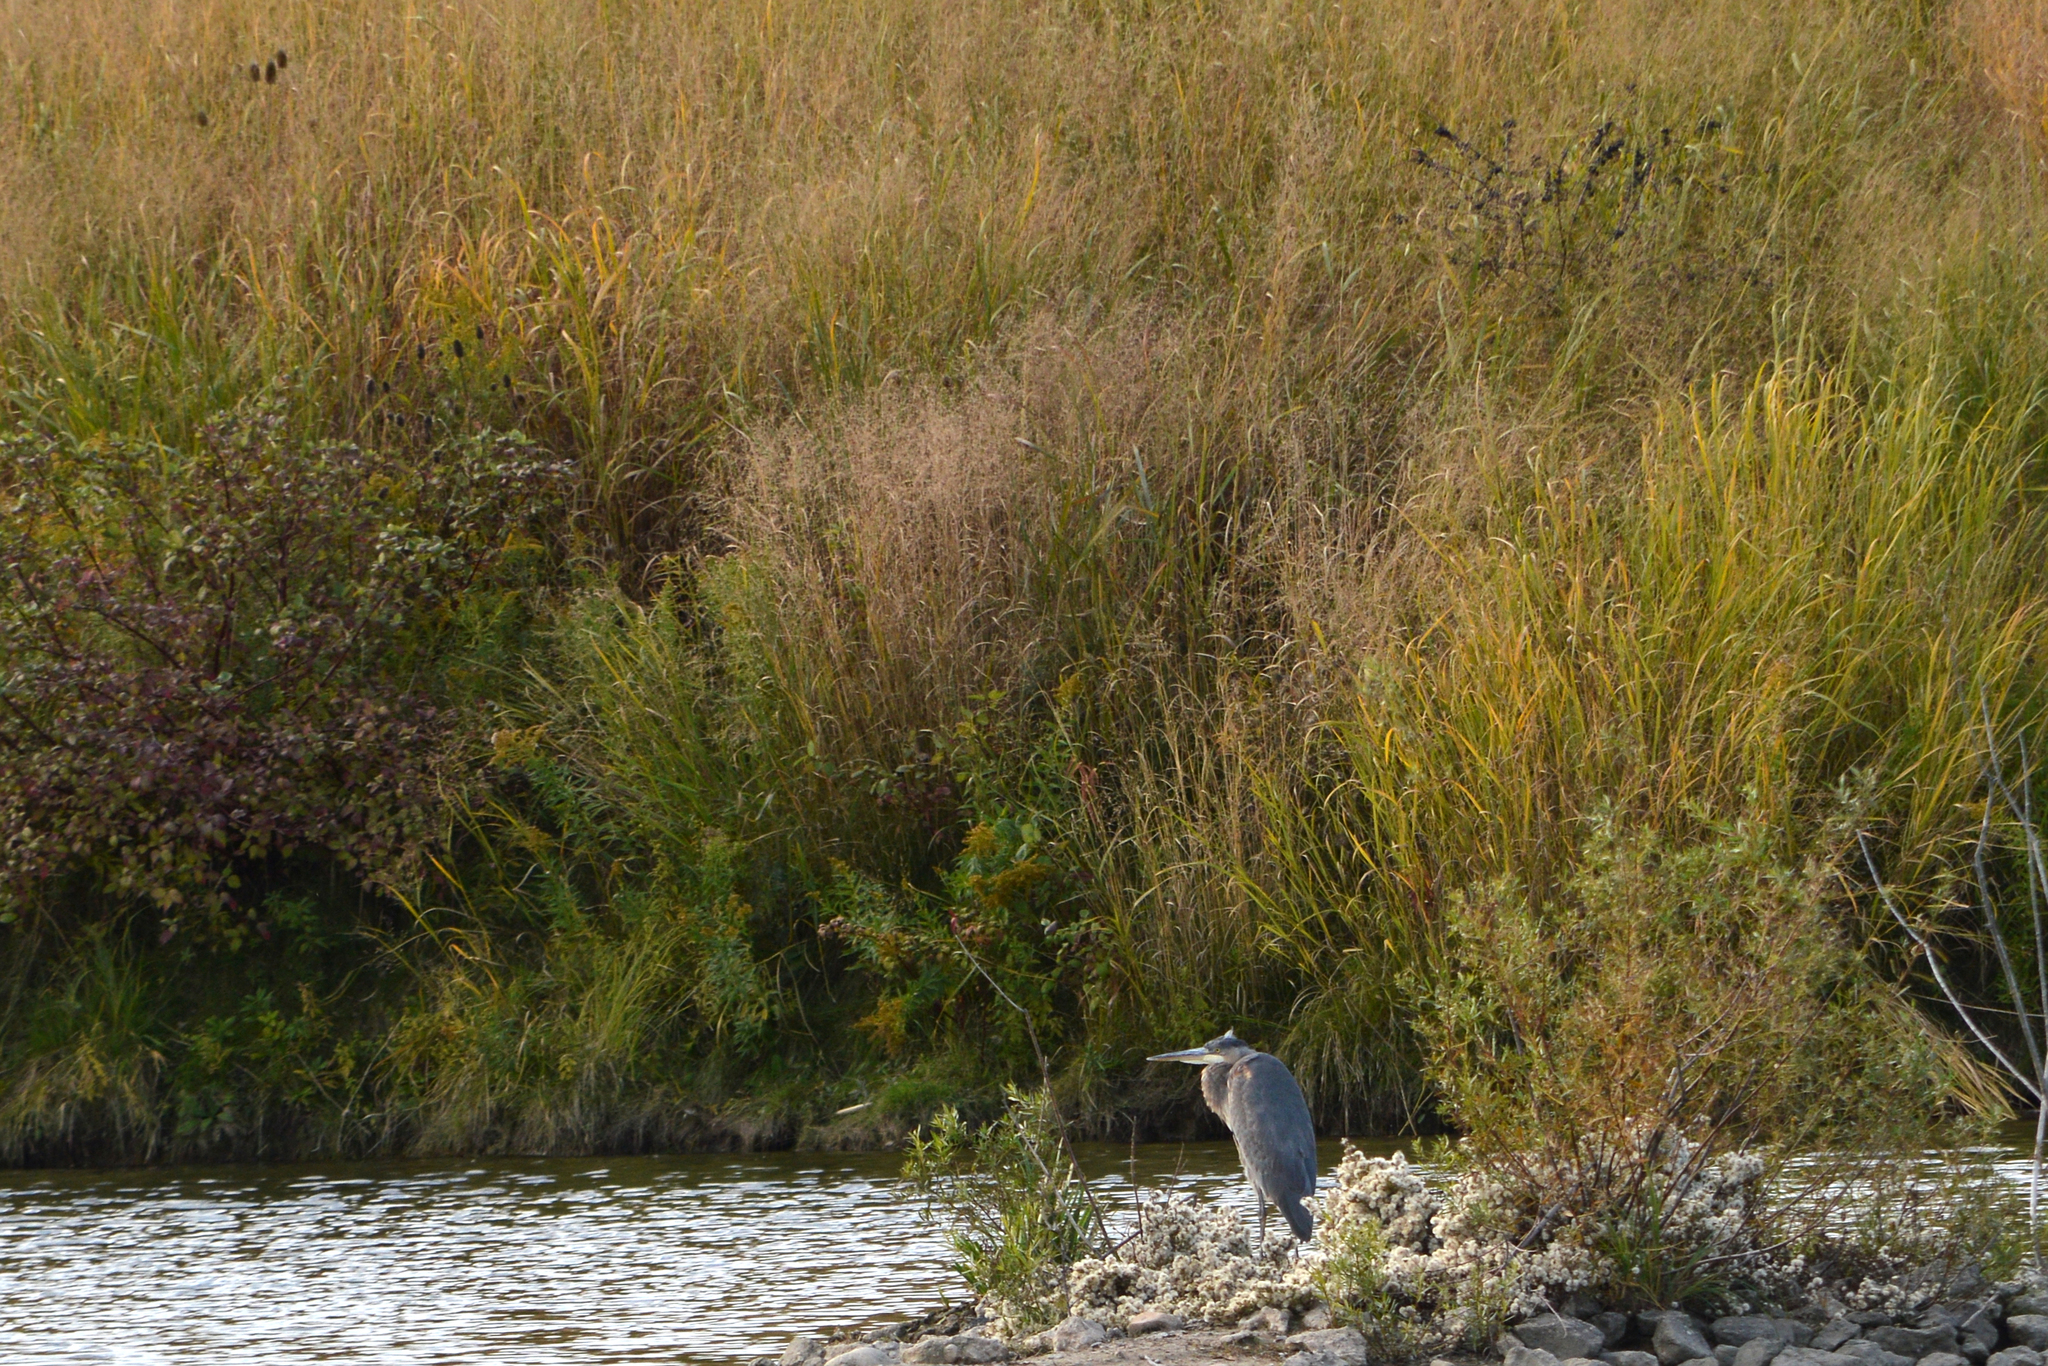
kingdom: Animalia
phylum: Chordata
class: Aves
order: Pelecaniformes
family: Ardeidae
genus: Ardea
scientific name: Ardea herodias
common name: Great blue heron
